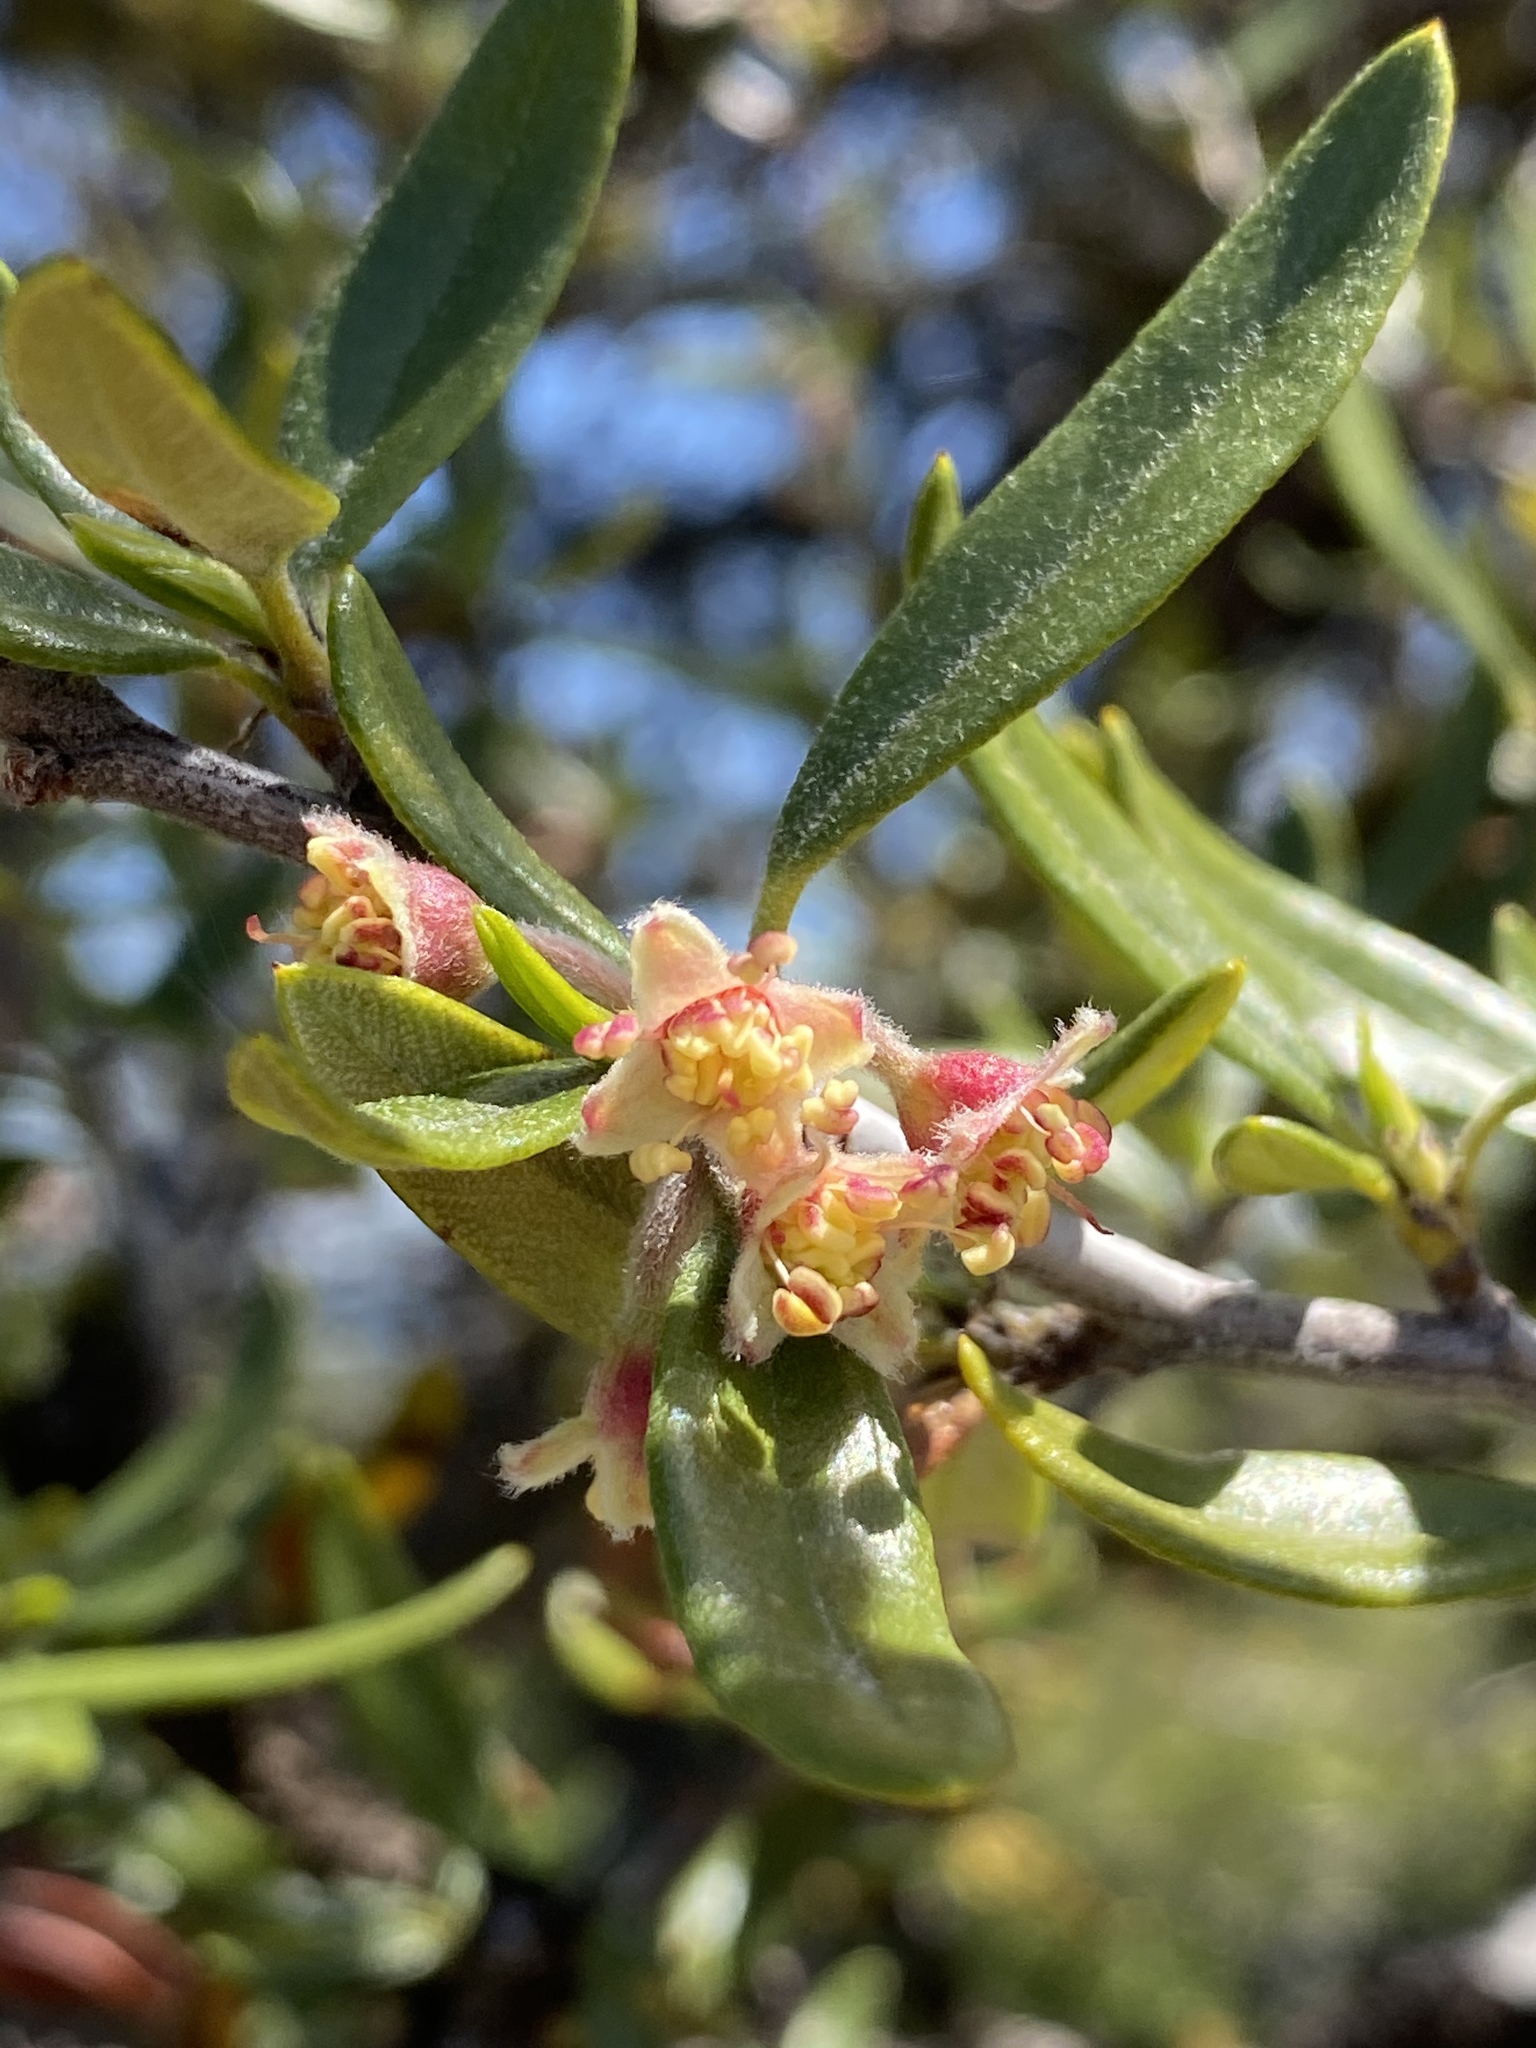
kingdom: Plantae
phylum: Tracheophyta
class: Magnoliopsida
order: Rosales
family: Rosaceae
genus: Cercocarpus
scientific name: Cercocarpus ledifolius
